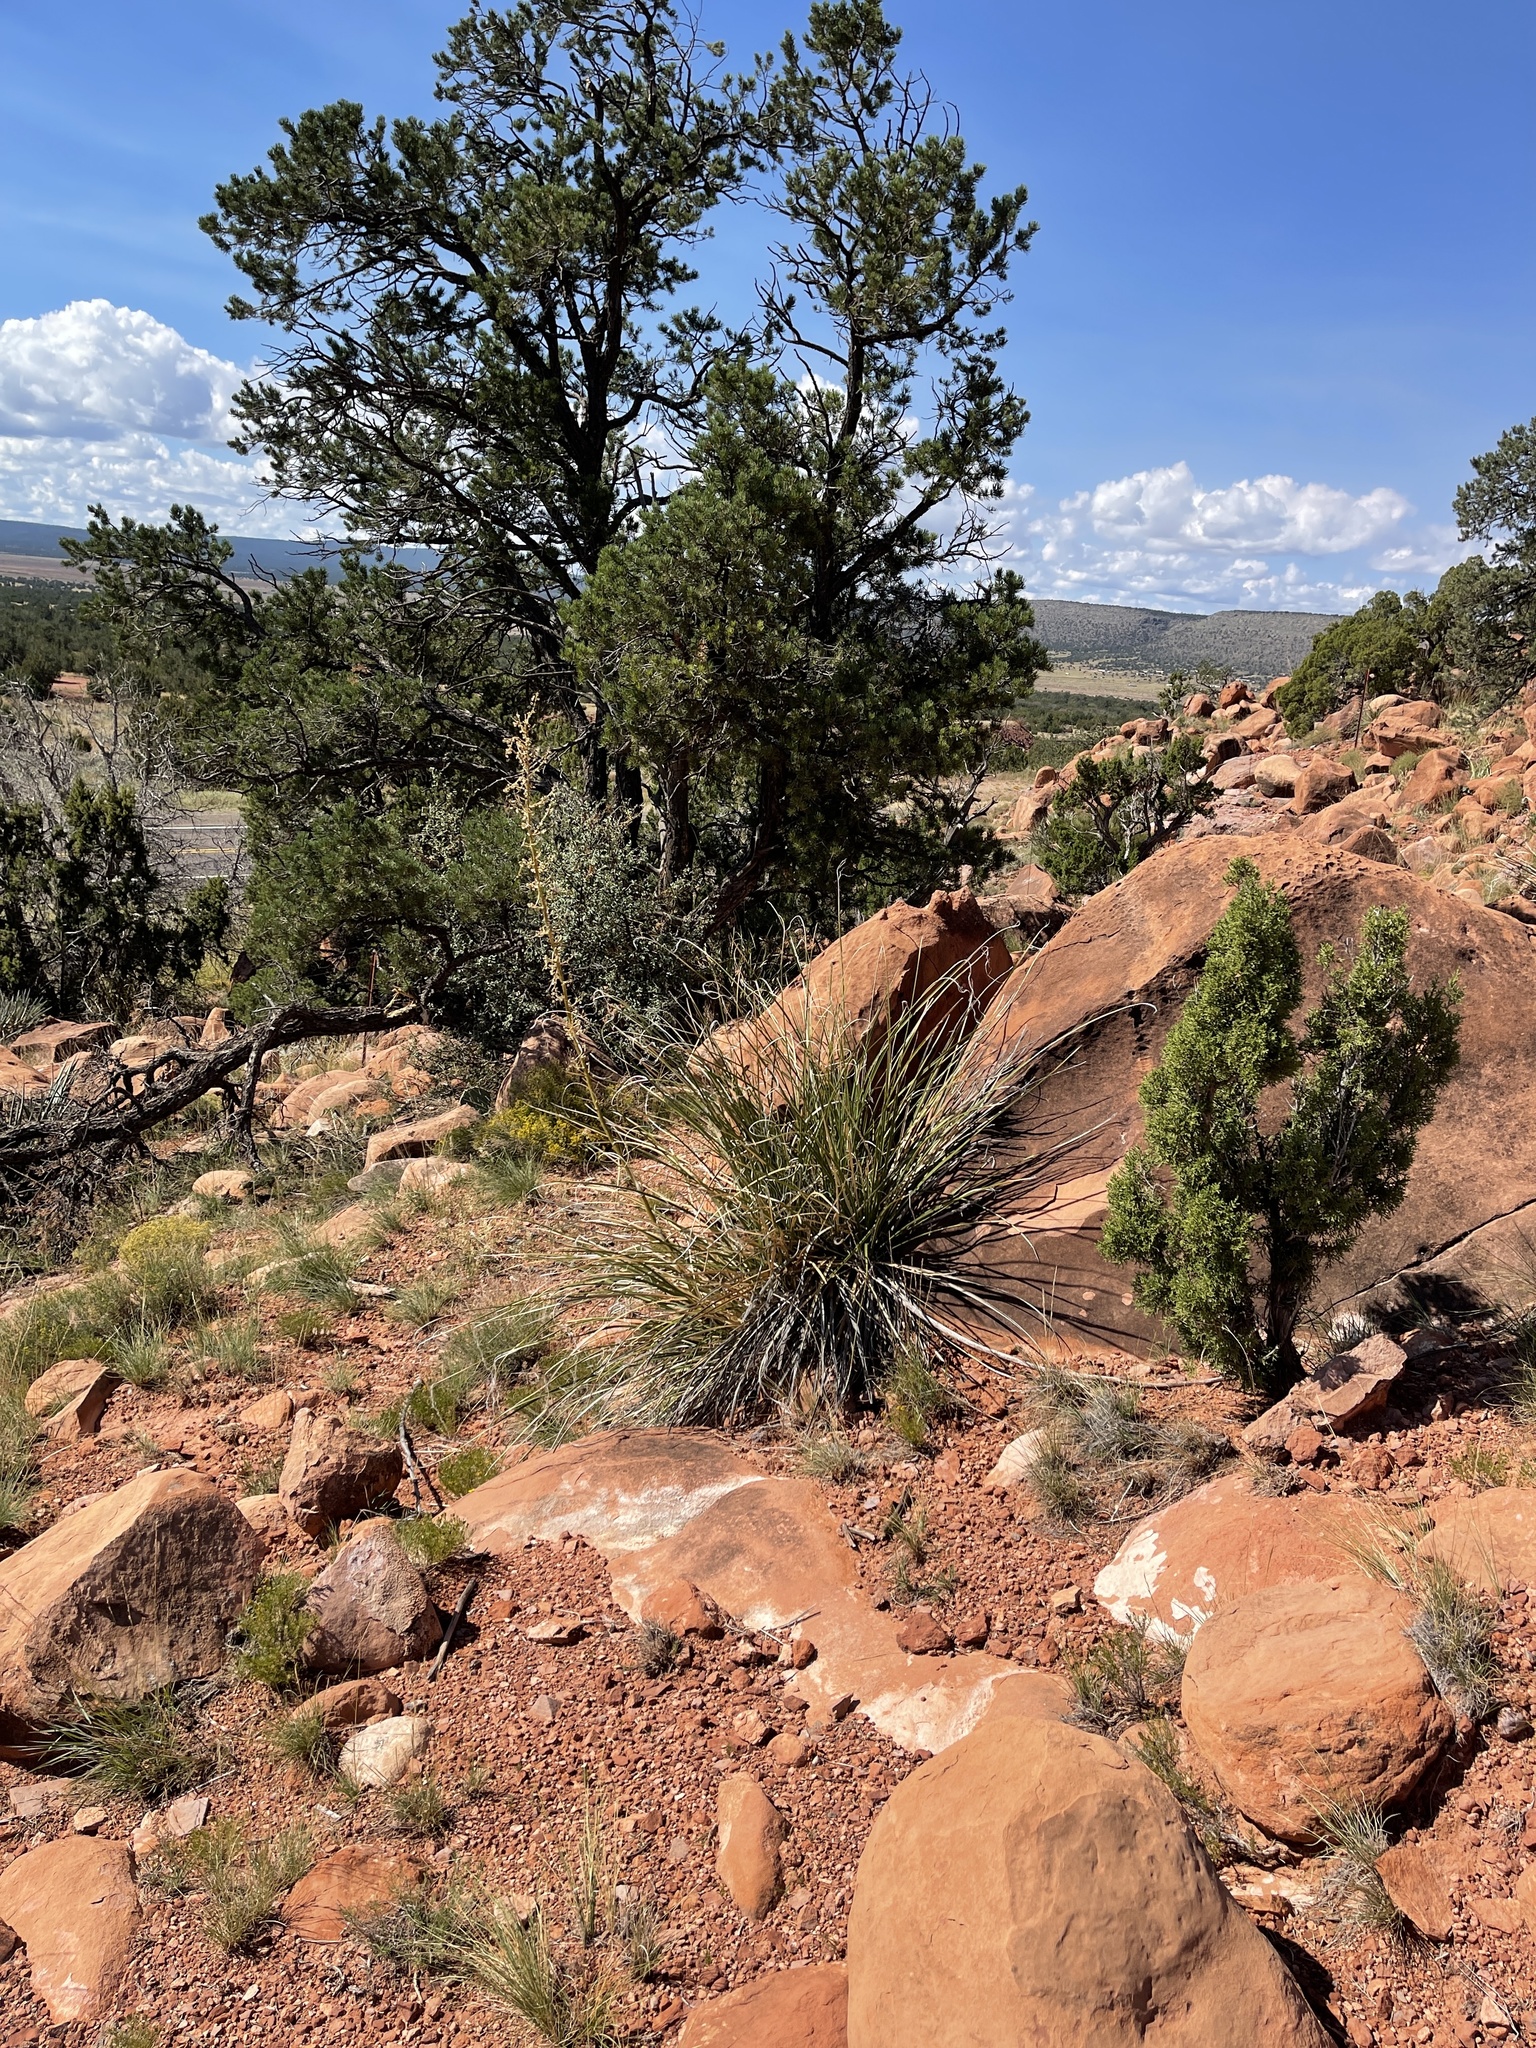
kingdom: Plantae
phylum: Tracheophyta
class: Liliopsida
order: Asparagales
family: Asparagaceae
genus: Nolina
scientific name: Nolina microcarpa
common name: Bear-grass
